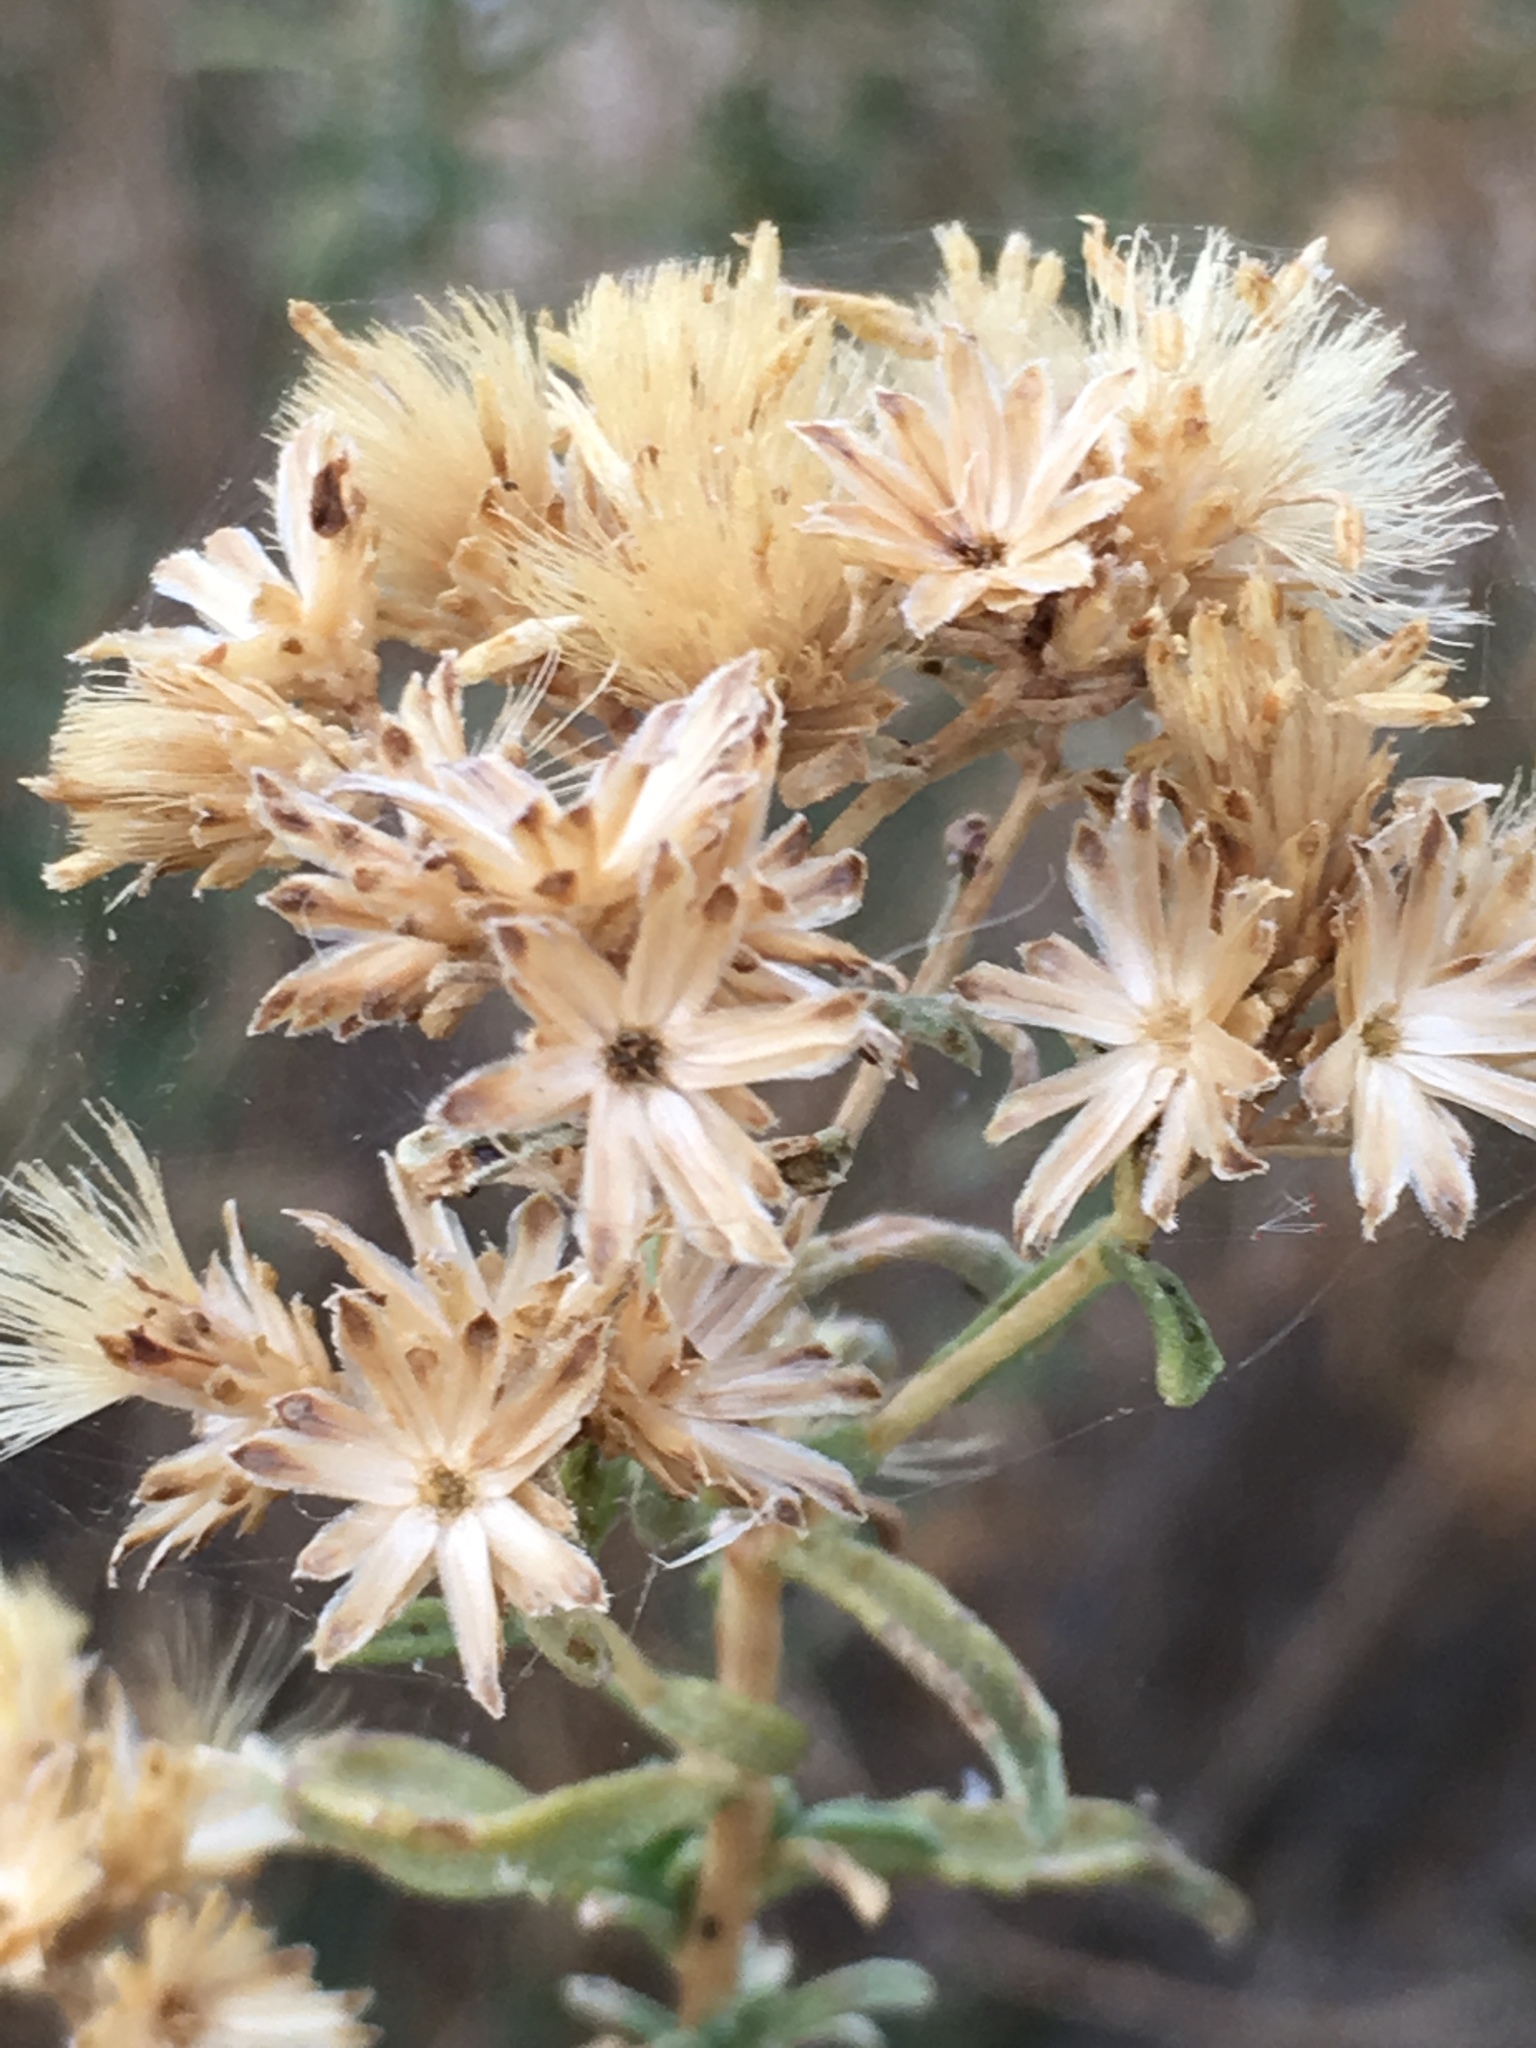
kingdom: Plantae
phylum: Tracheophyta
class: Magnoliopsida
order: Asterales
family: Asteraceae
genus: Isocoma
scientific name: Isocoma acradenia
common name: Alkali jimmyweed
